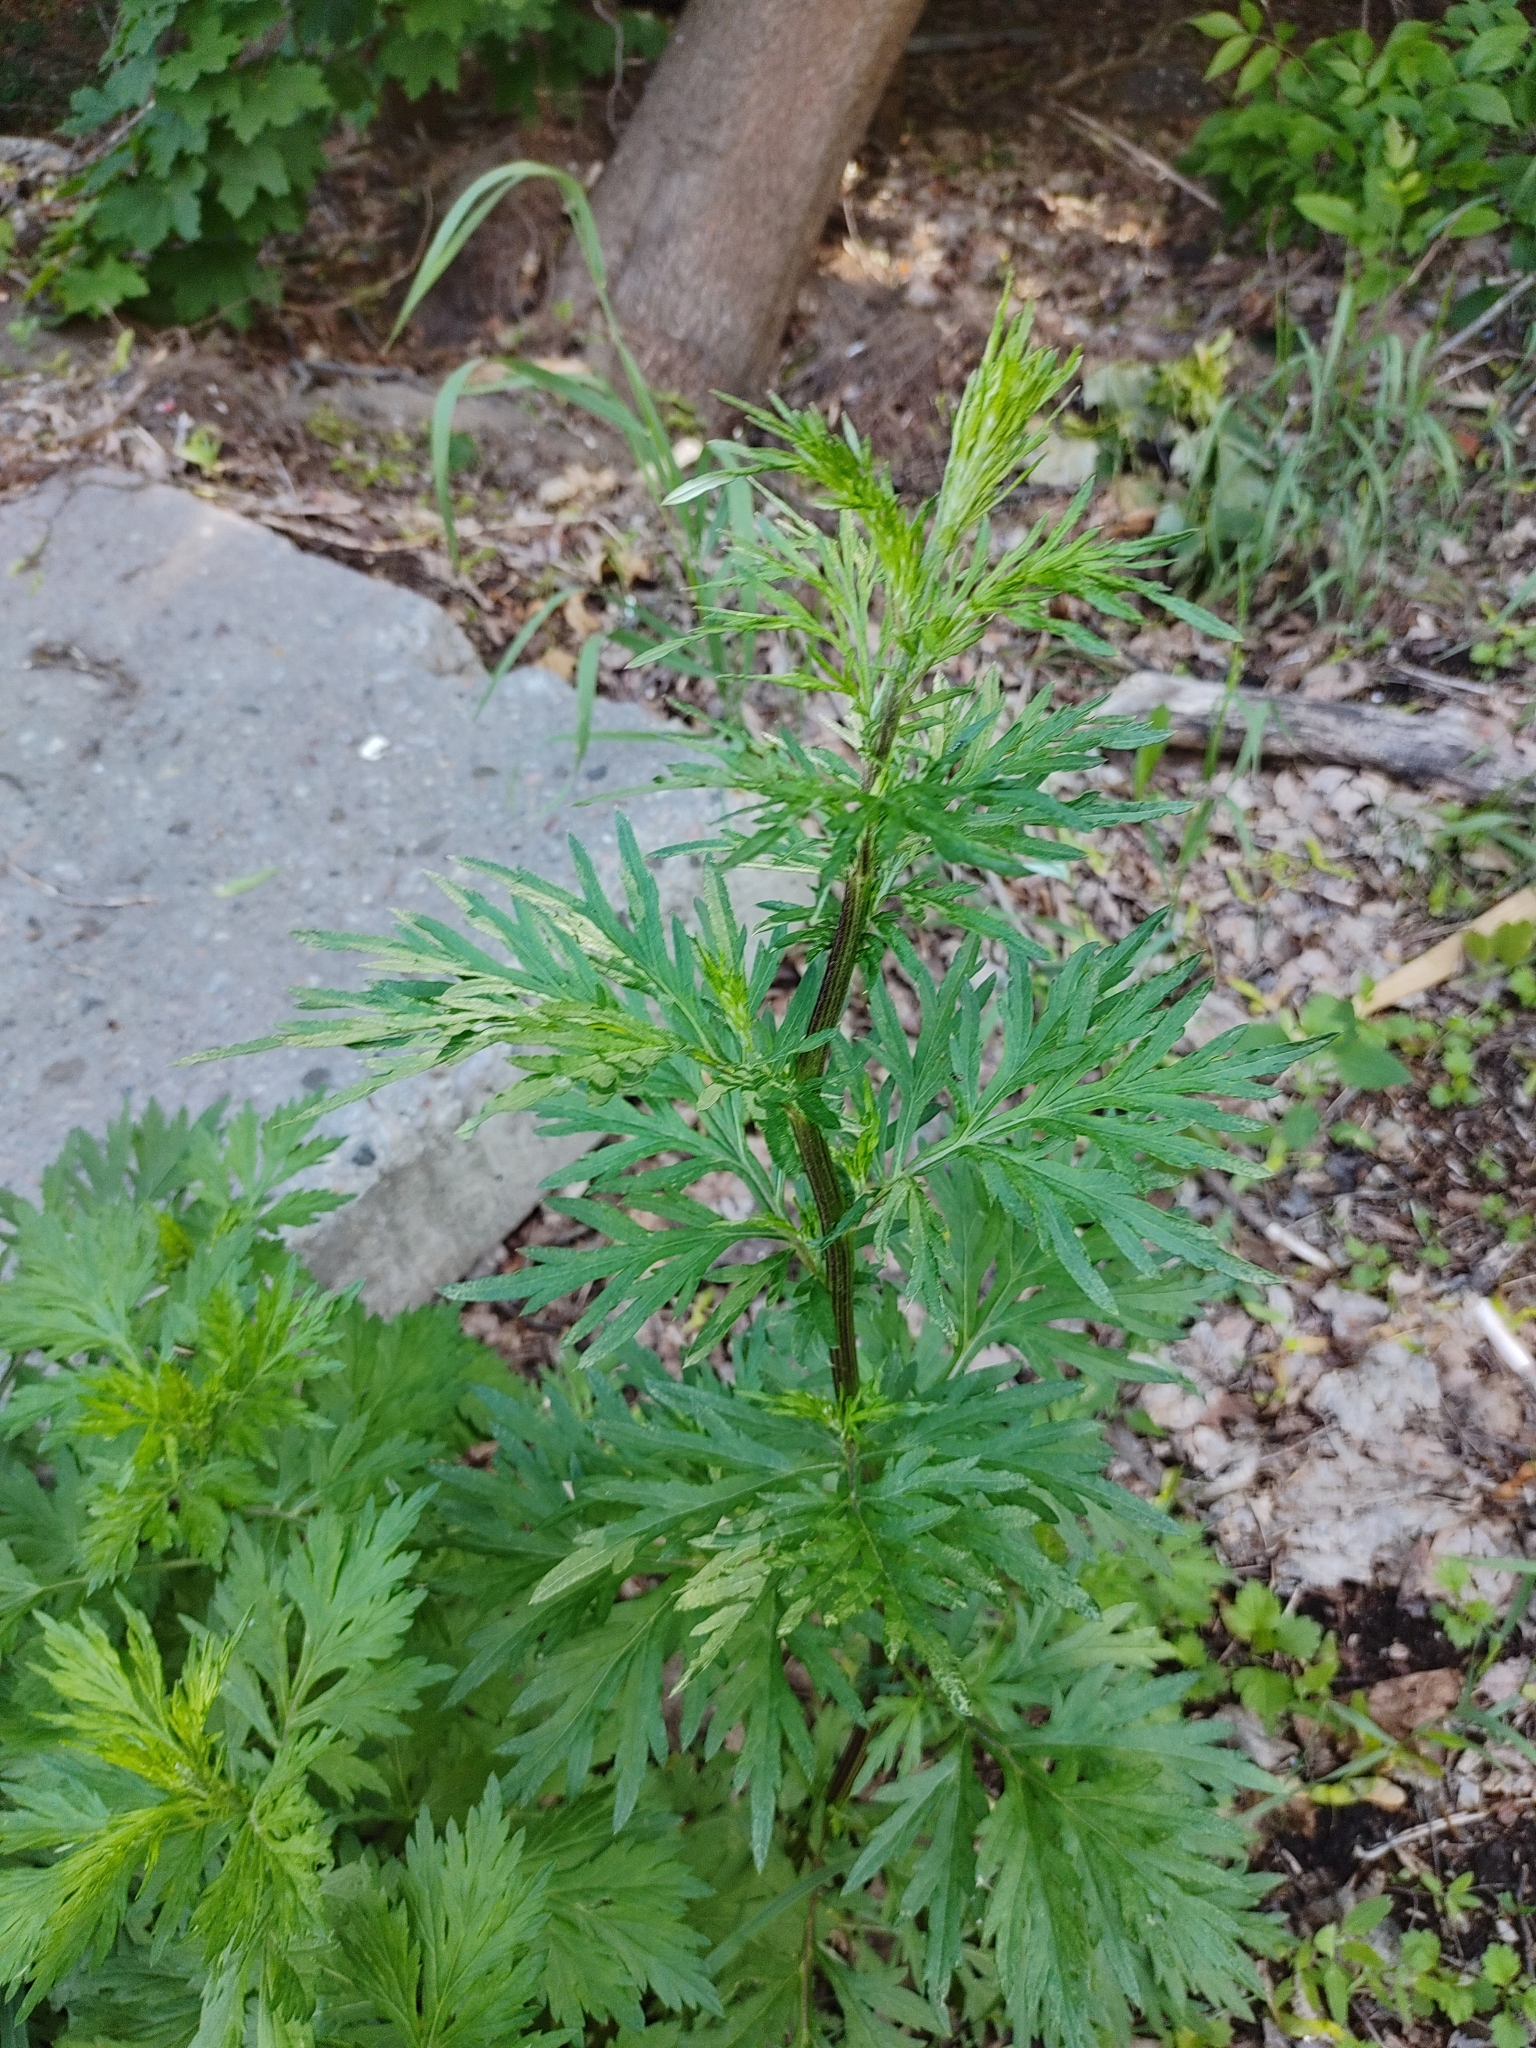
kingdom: Plantae
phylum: Tracheophyta
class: Magnoliopsida
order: Asterales
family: Asteraceae
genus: Artemisia
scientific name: Artemisia vulgaris
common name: Mugwort
